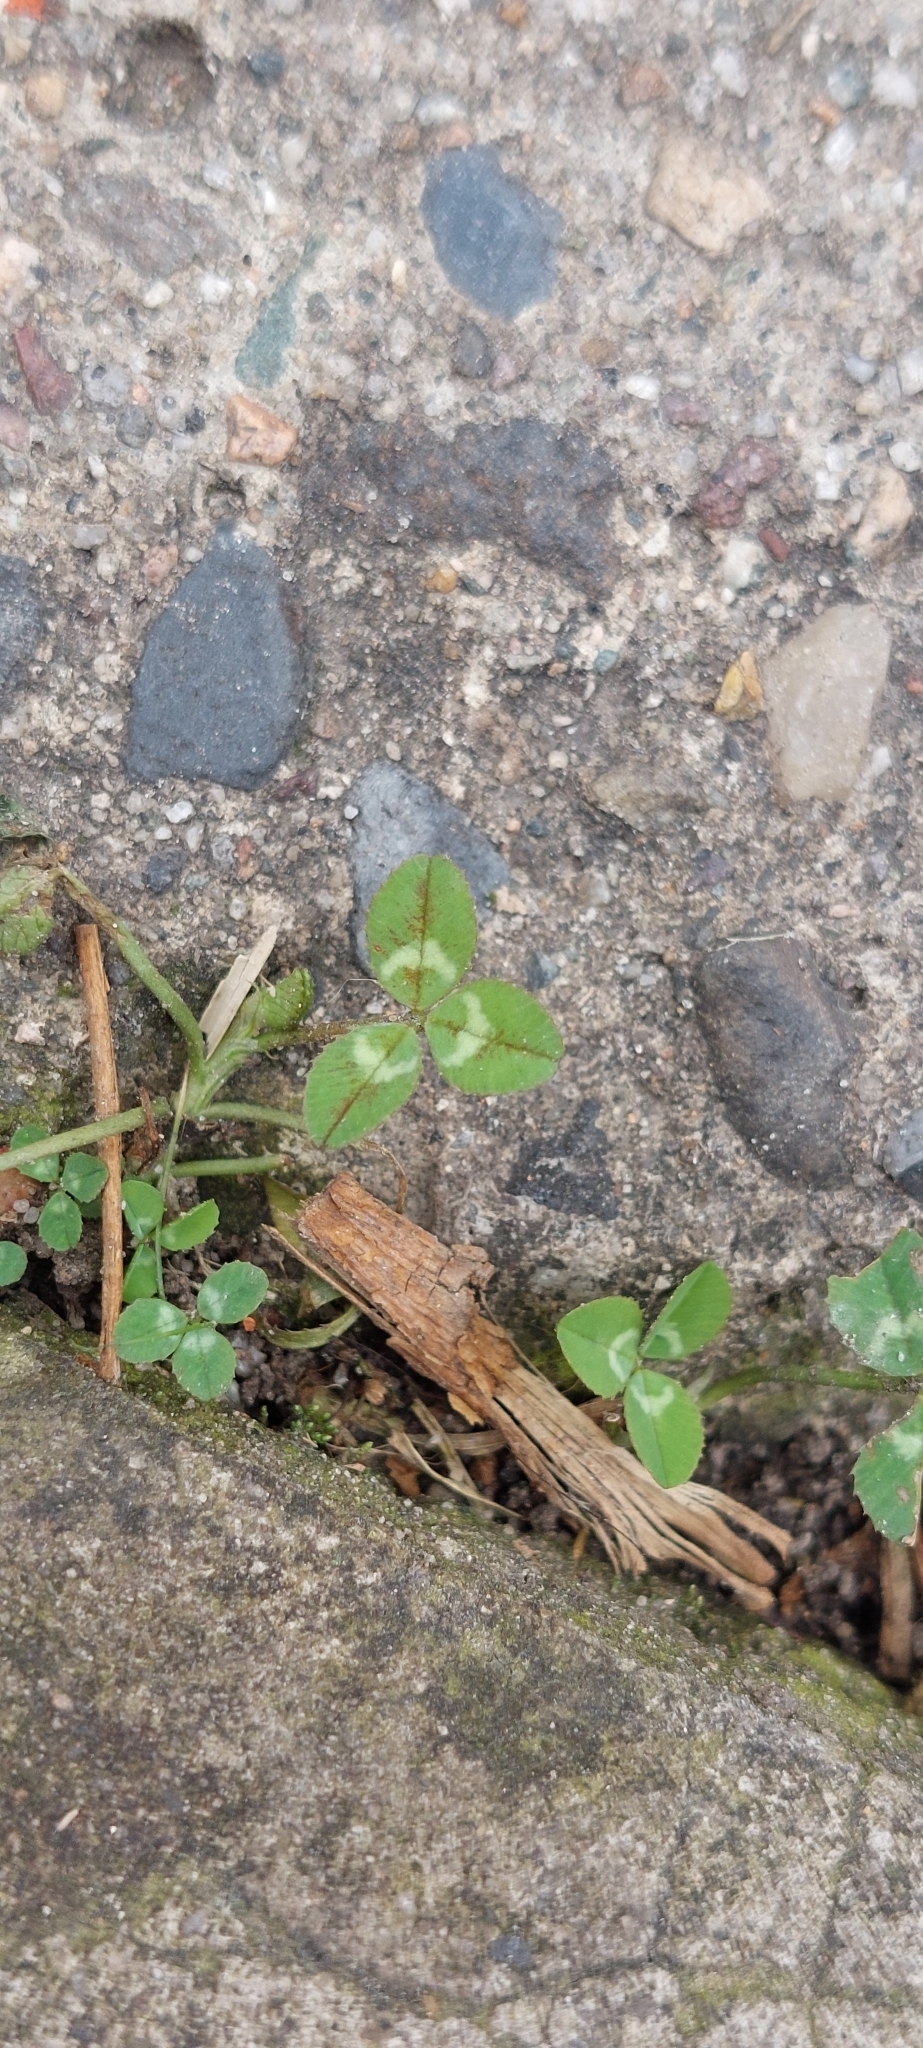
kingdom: Plantae
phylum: Tracheophyta
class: Magnoliopsida
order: Fabales
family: Fabaceae
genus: Trifolium
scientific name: Trifolium repens
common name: White clover
